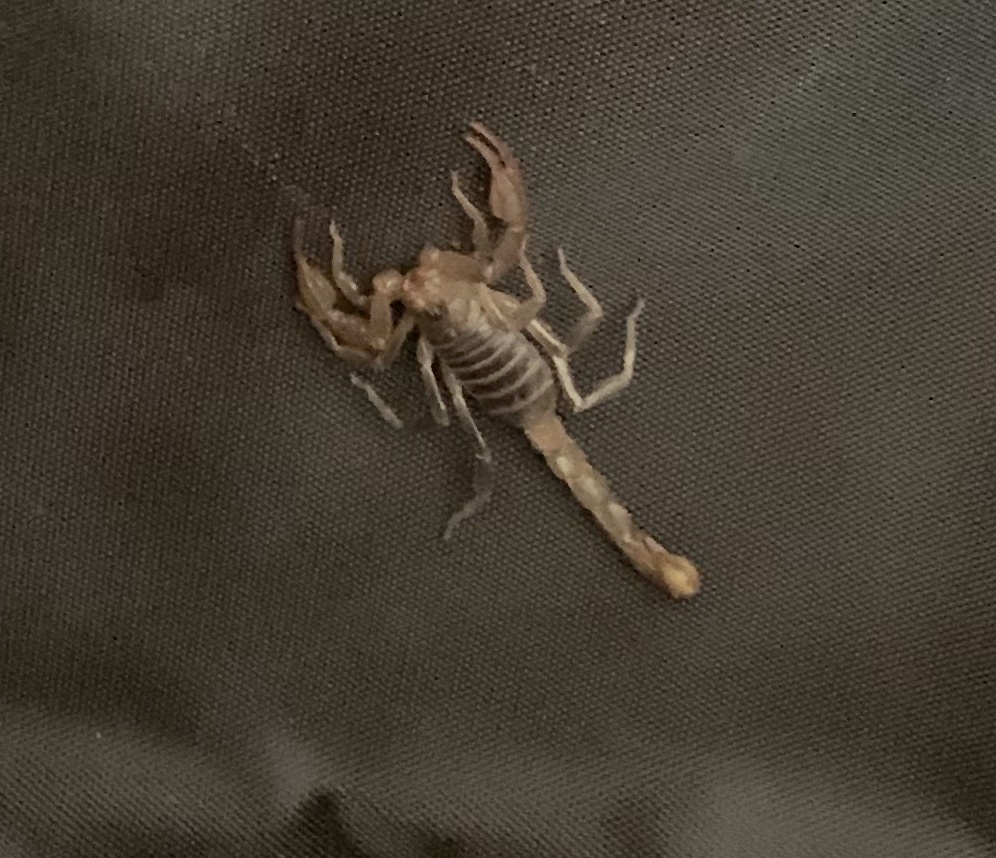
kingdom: Animalia
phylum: Arthropoda
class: Arachnida
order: Scorpiones
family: Vaejovidae
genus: Paruroctonus
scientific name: Paruroctonus boreus
